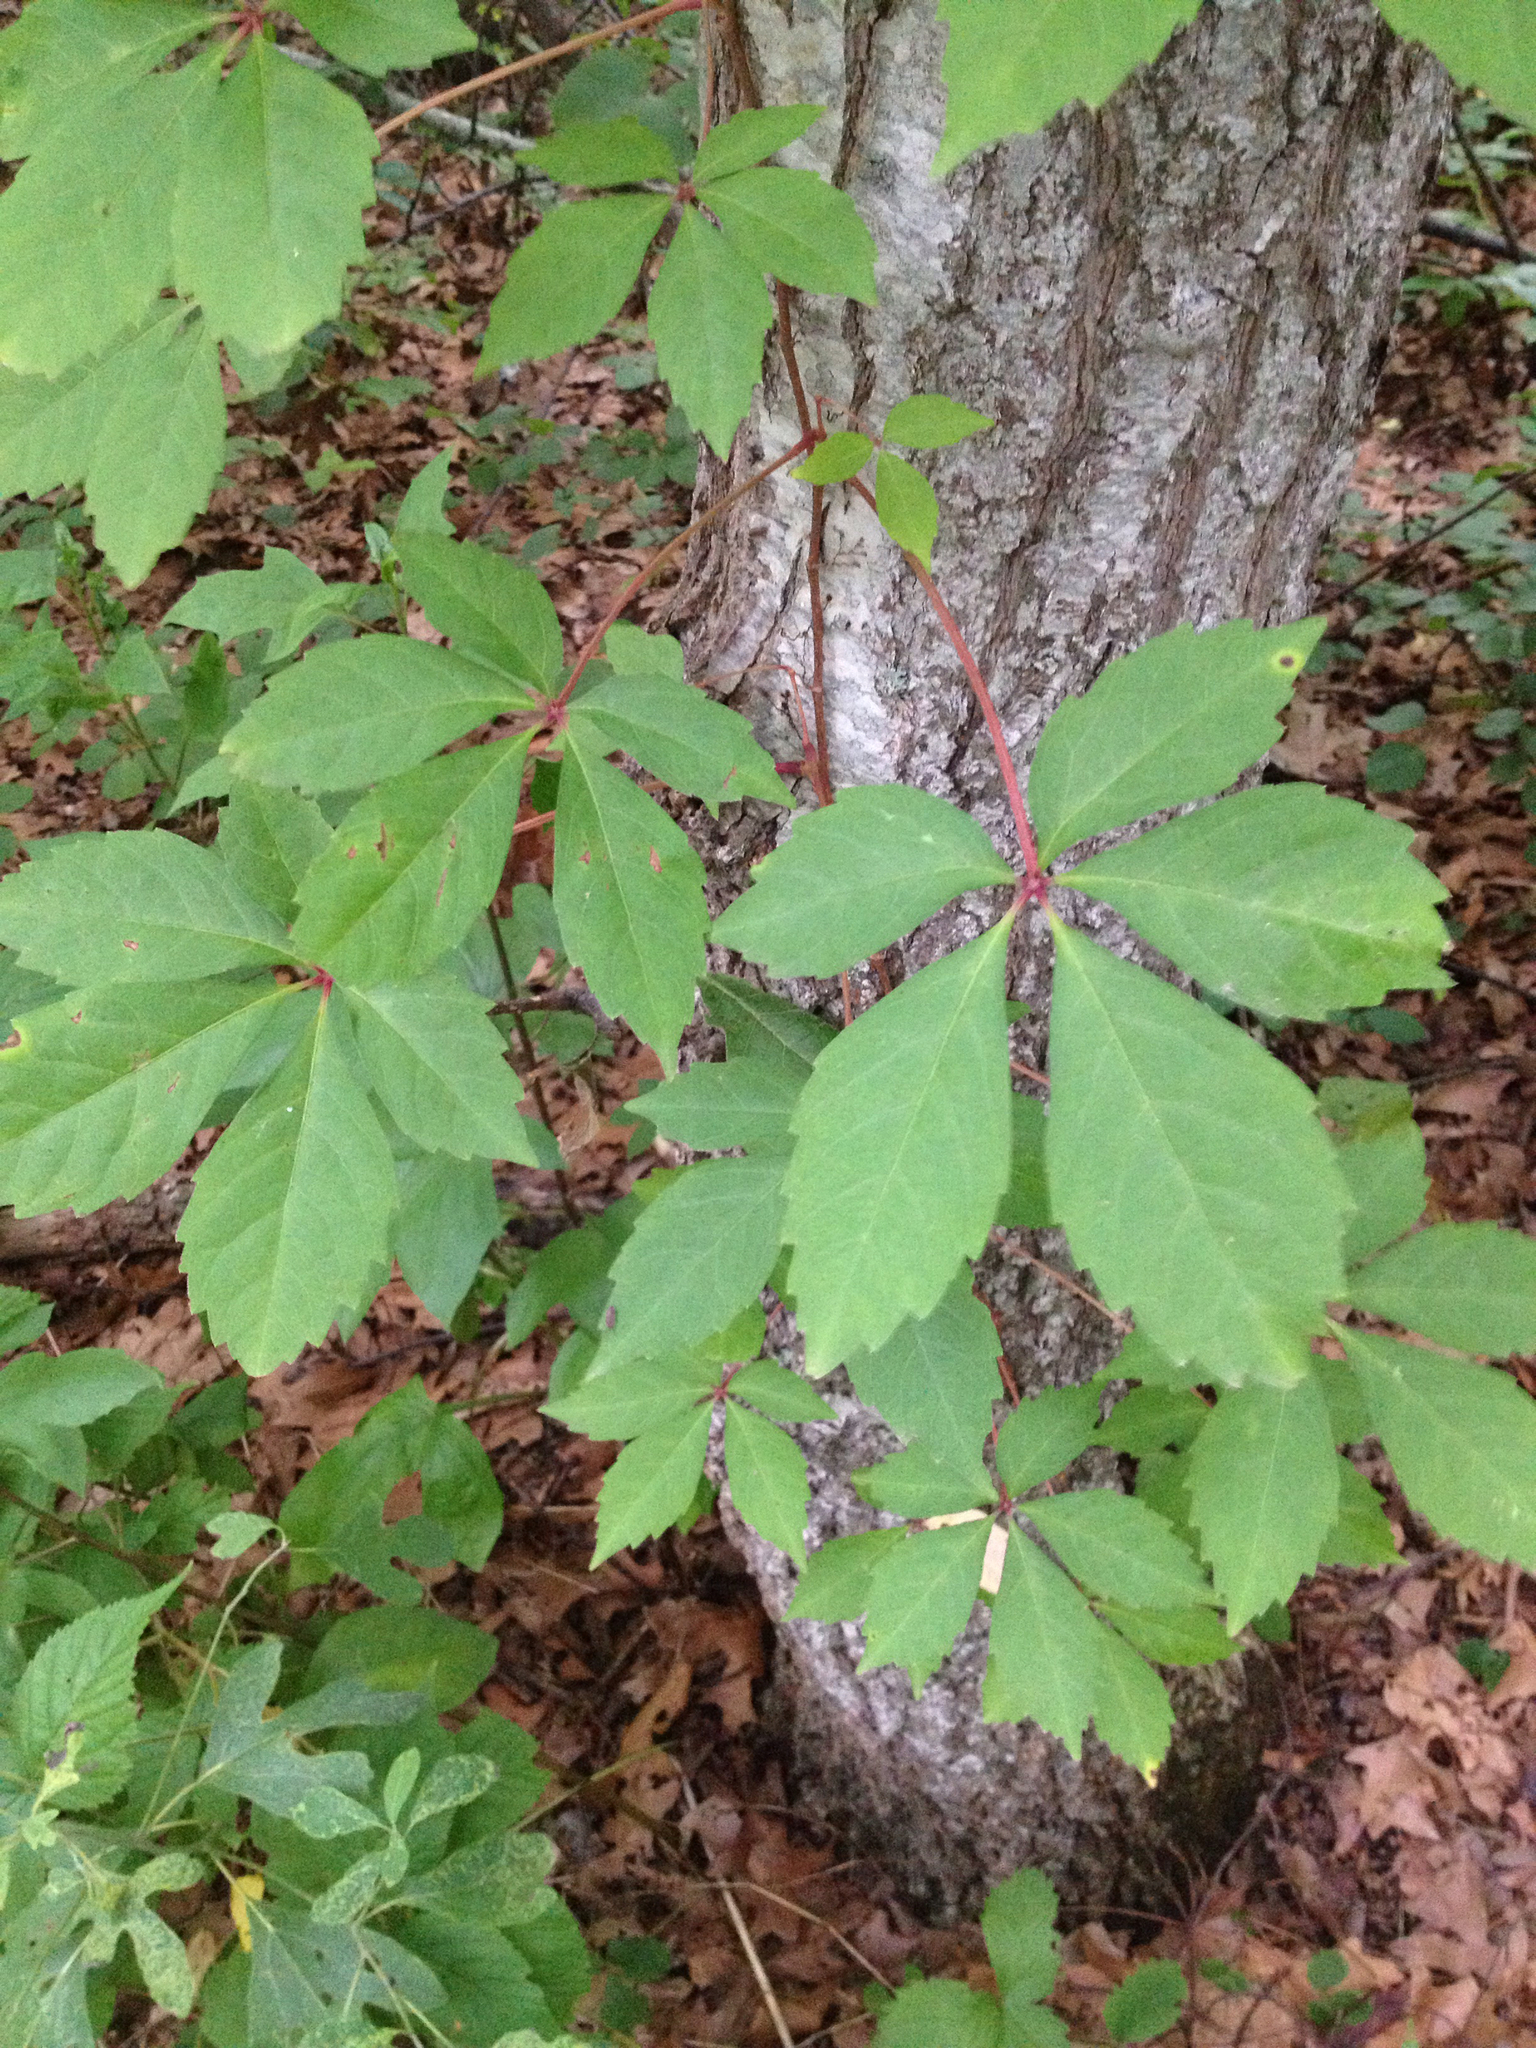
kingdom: Plantae
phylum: Tracheophyta
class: Magnoliopsida
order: Vitales
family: Vitaceae
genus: Parthenocissus
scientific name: Parthenocissus quinquefolia
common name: Virginia-creeper
